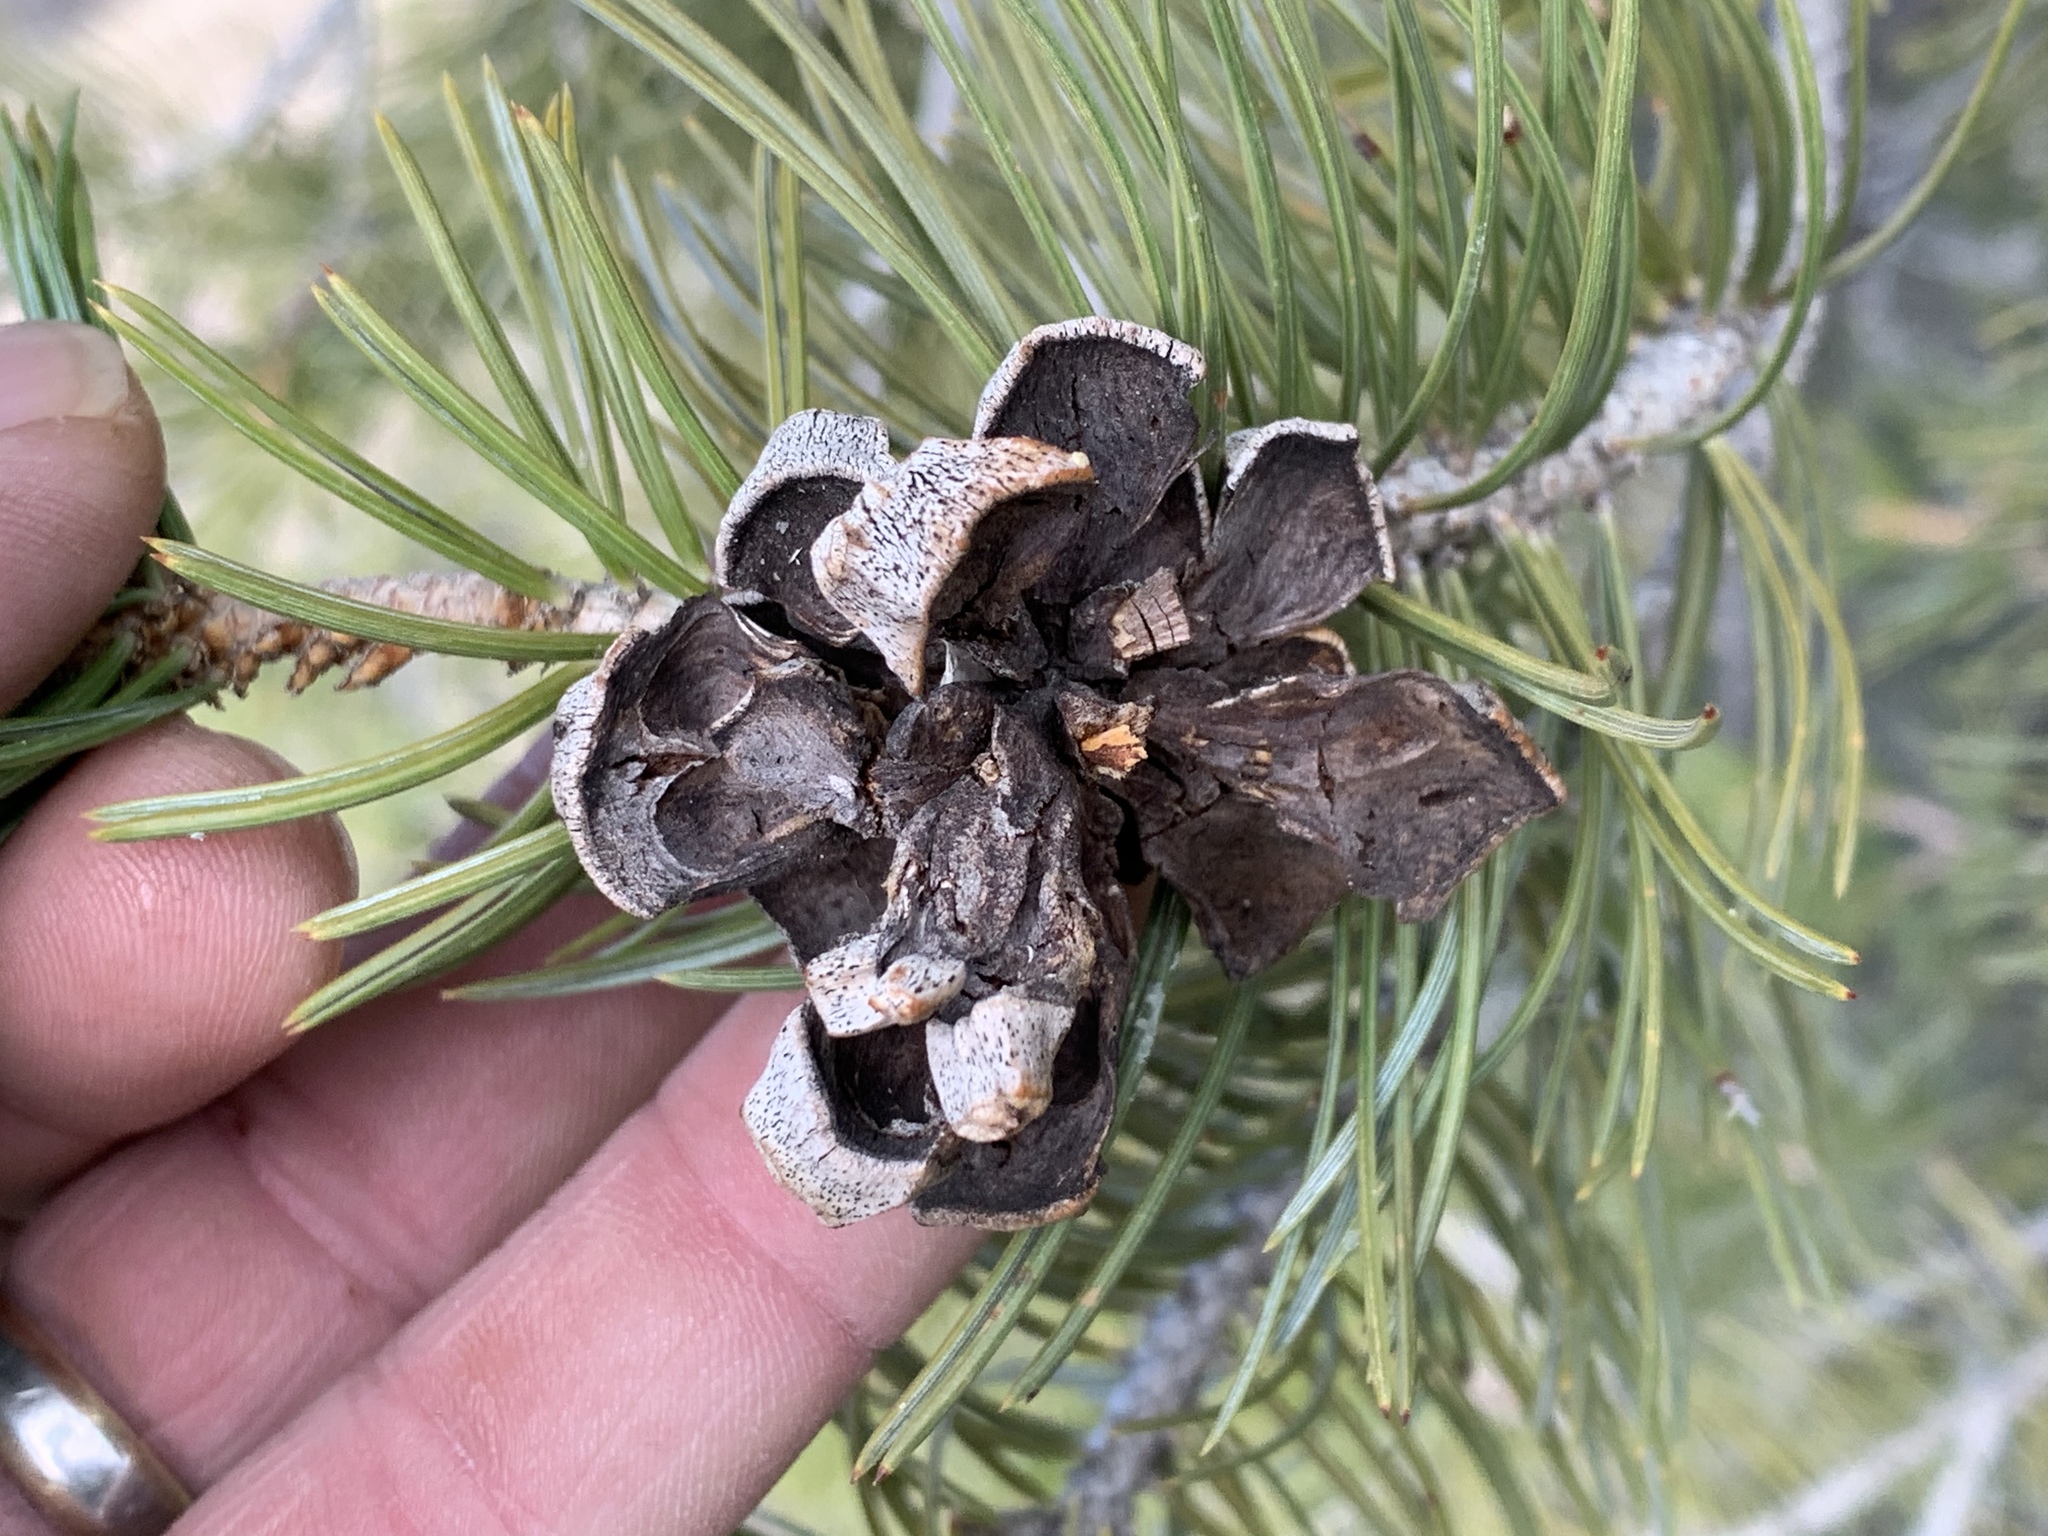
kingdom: Plantae
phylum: Tracheophyta
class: Pinopsida
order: Pinales
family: Pinaceae
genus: Pinus
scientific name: Pinus edulis
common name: Colorado pinyon
